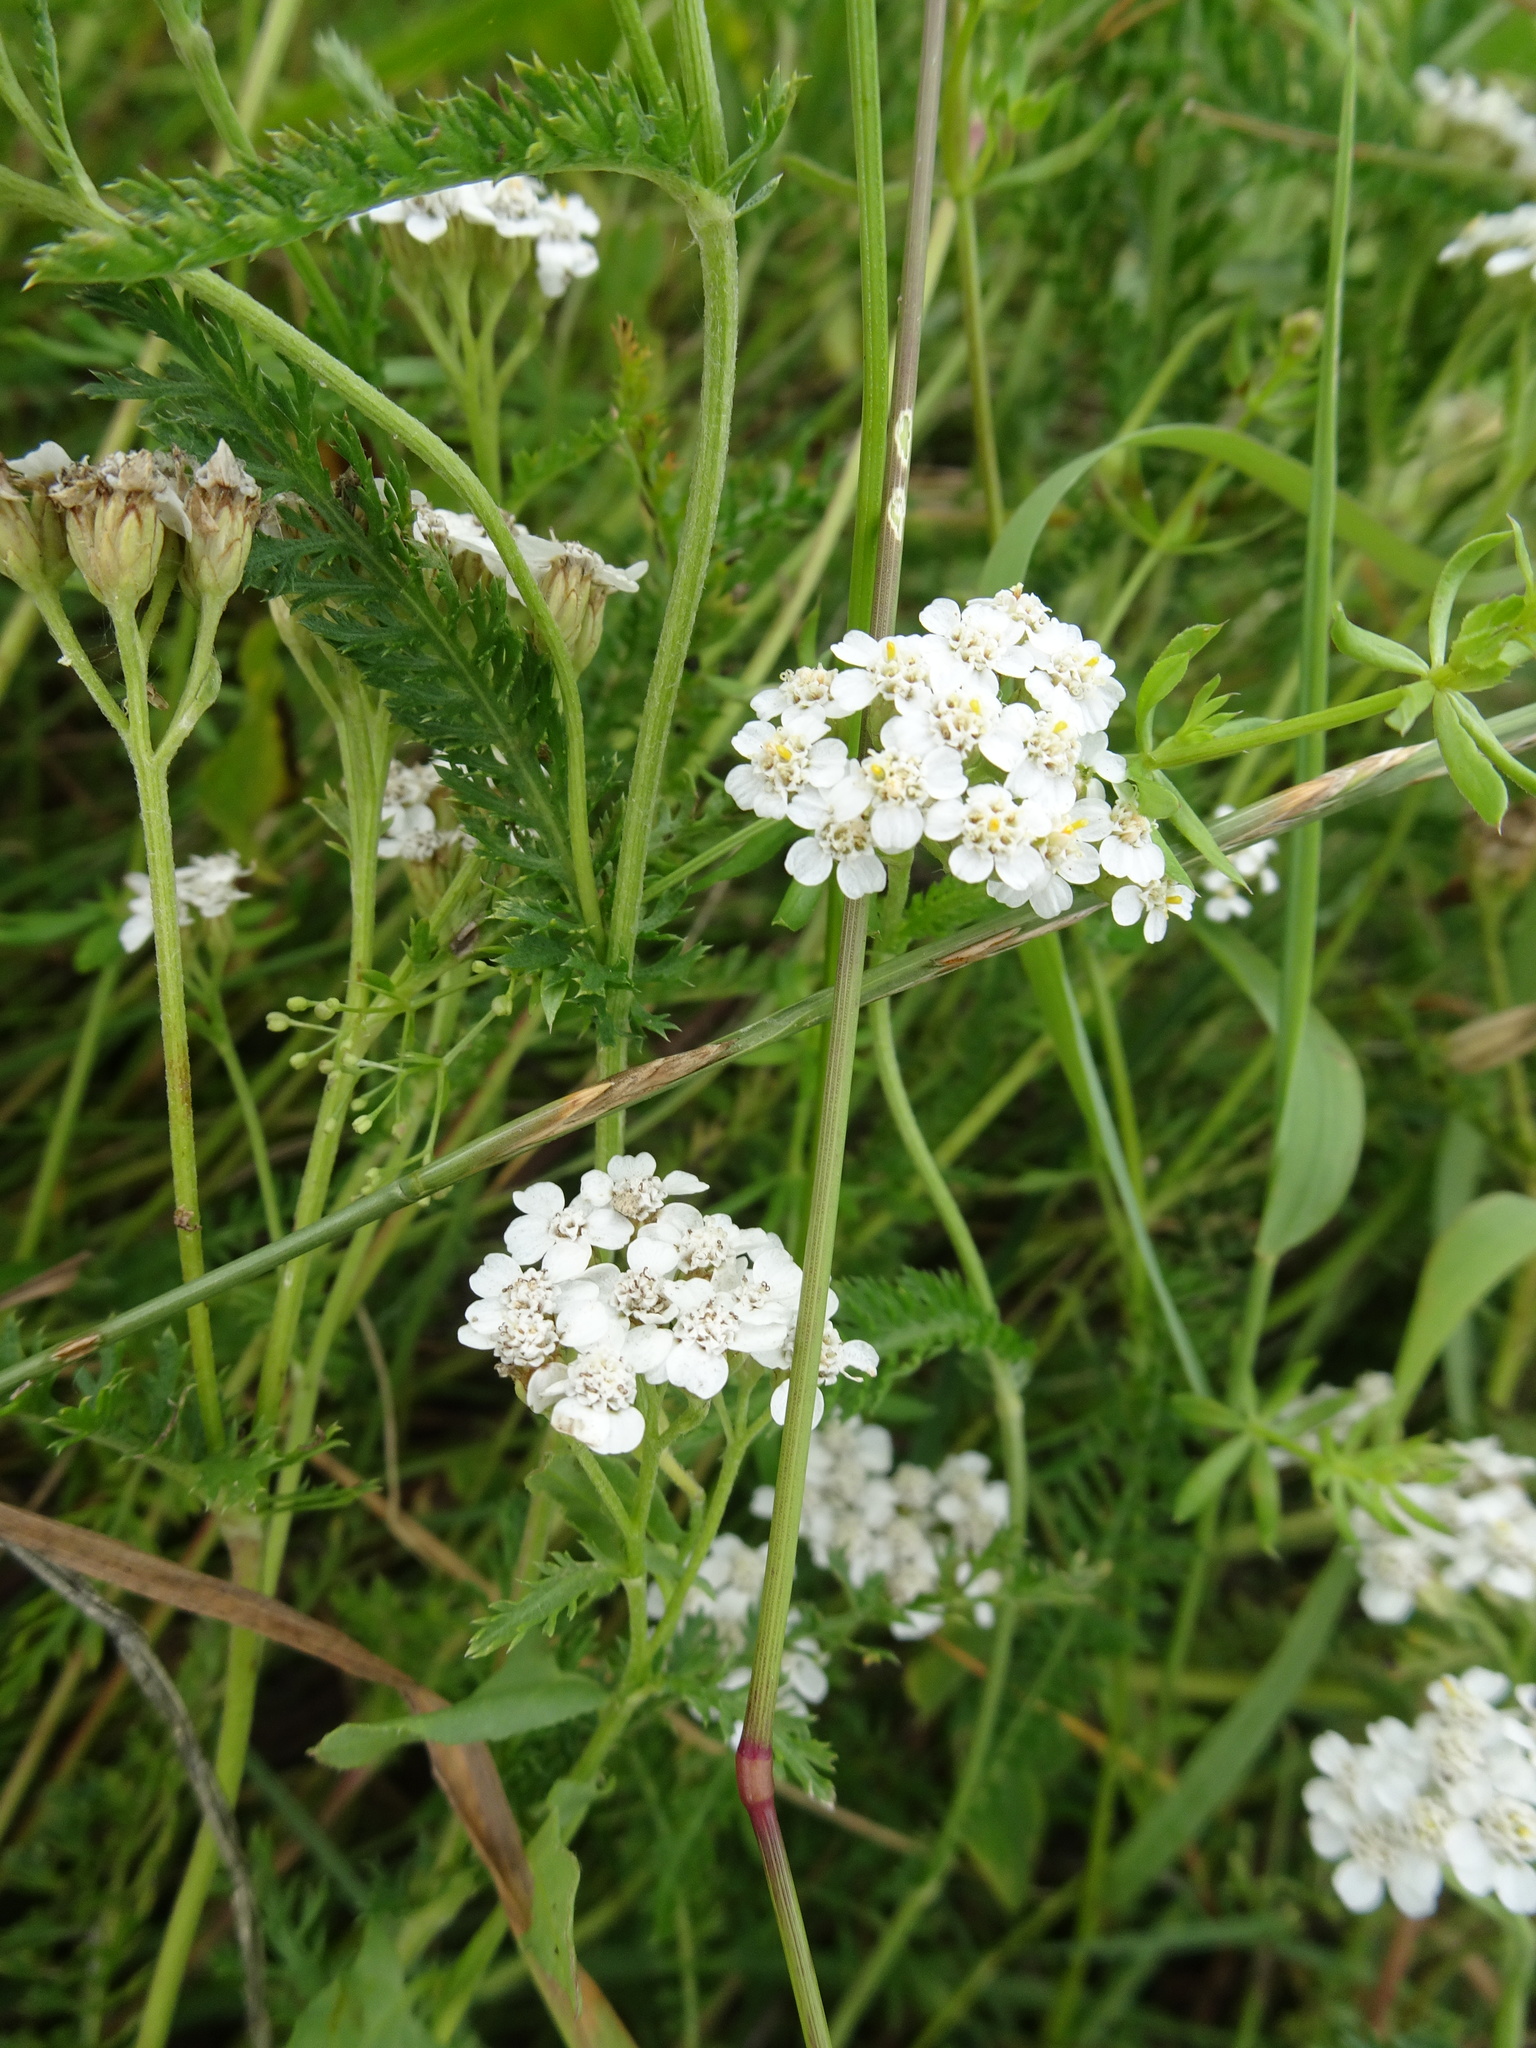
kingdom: Plantae
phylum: Tracheophyta
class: Magnoliopsida
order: Asterales
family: Asteraceae
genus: Achillea
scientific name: Achillea millefolium
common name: Yarrow
